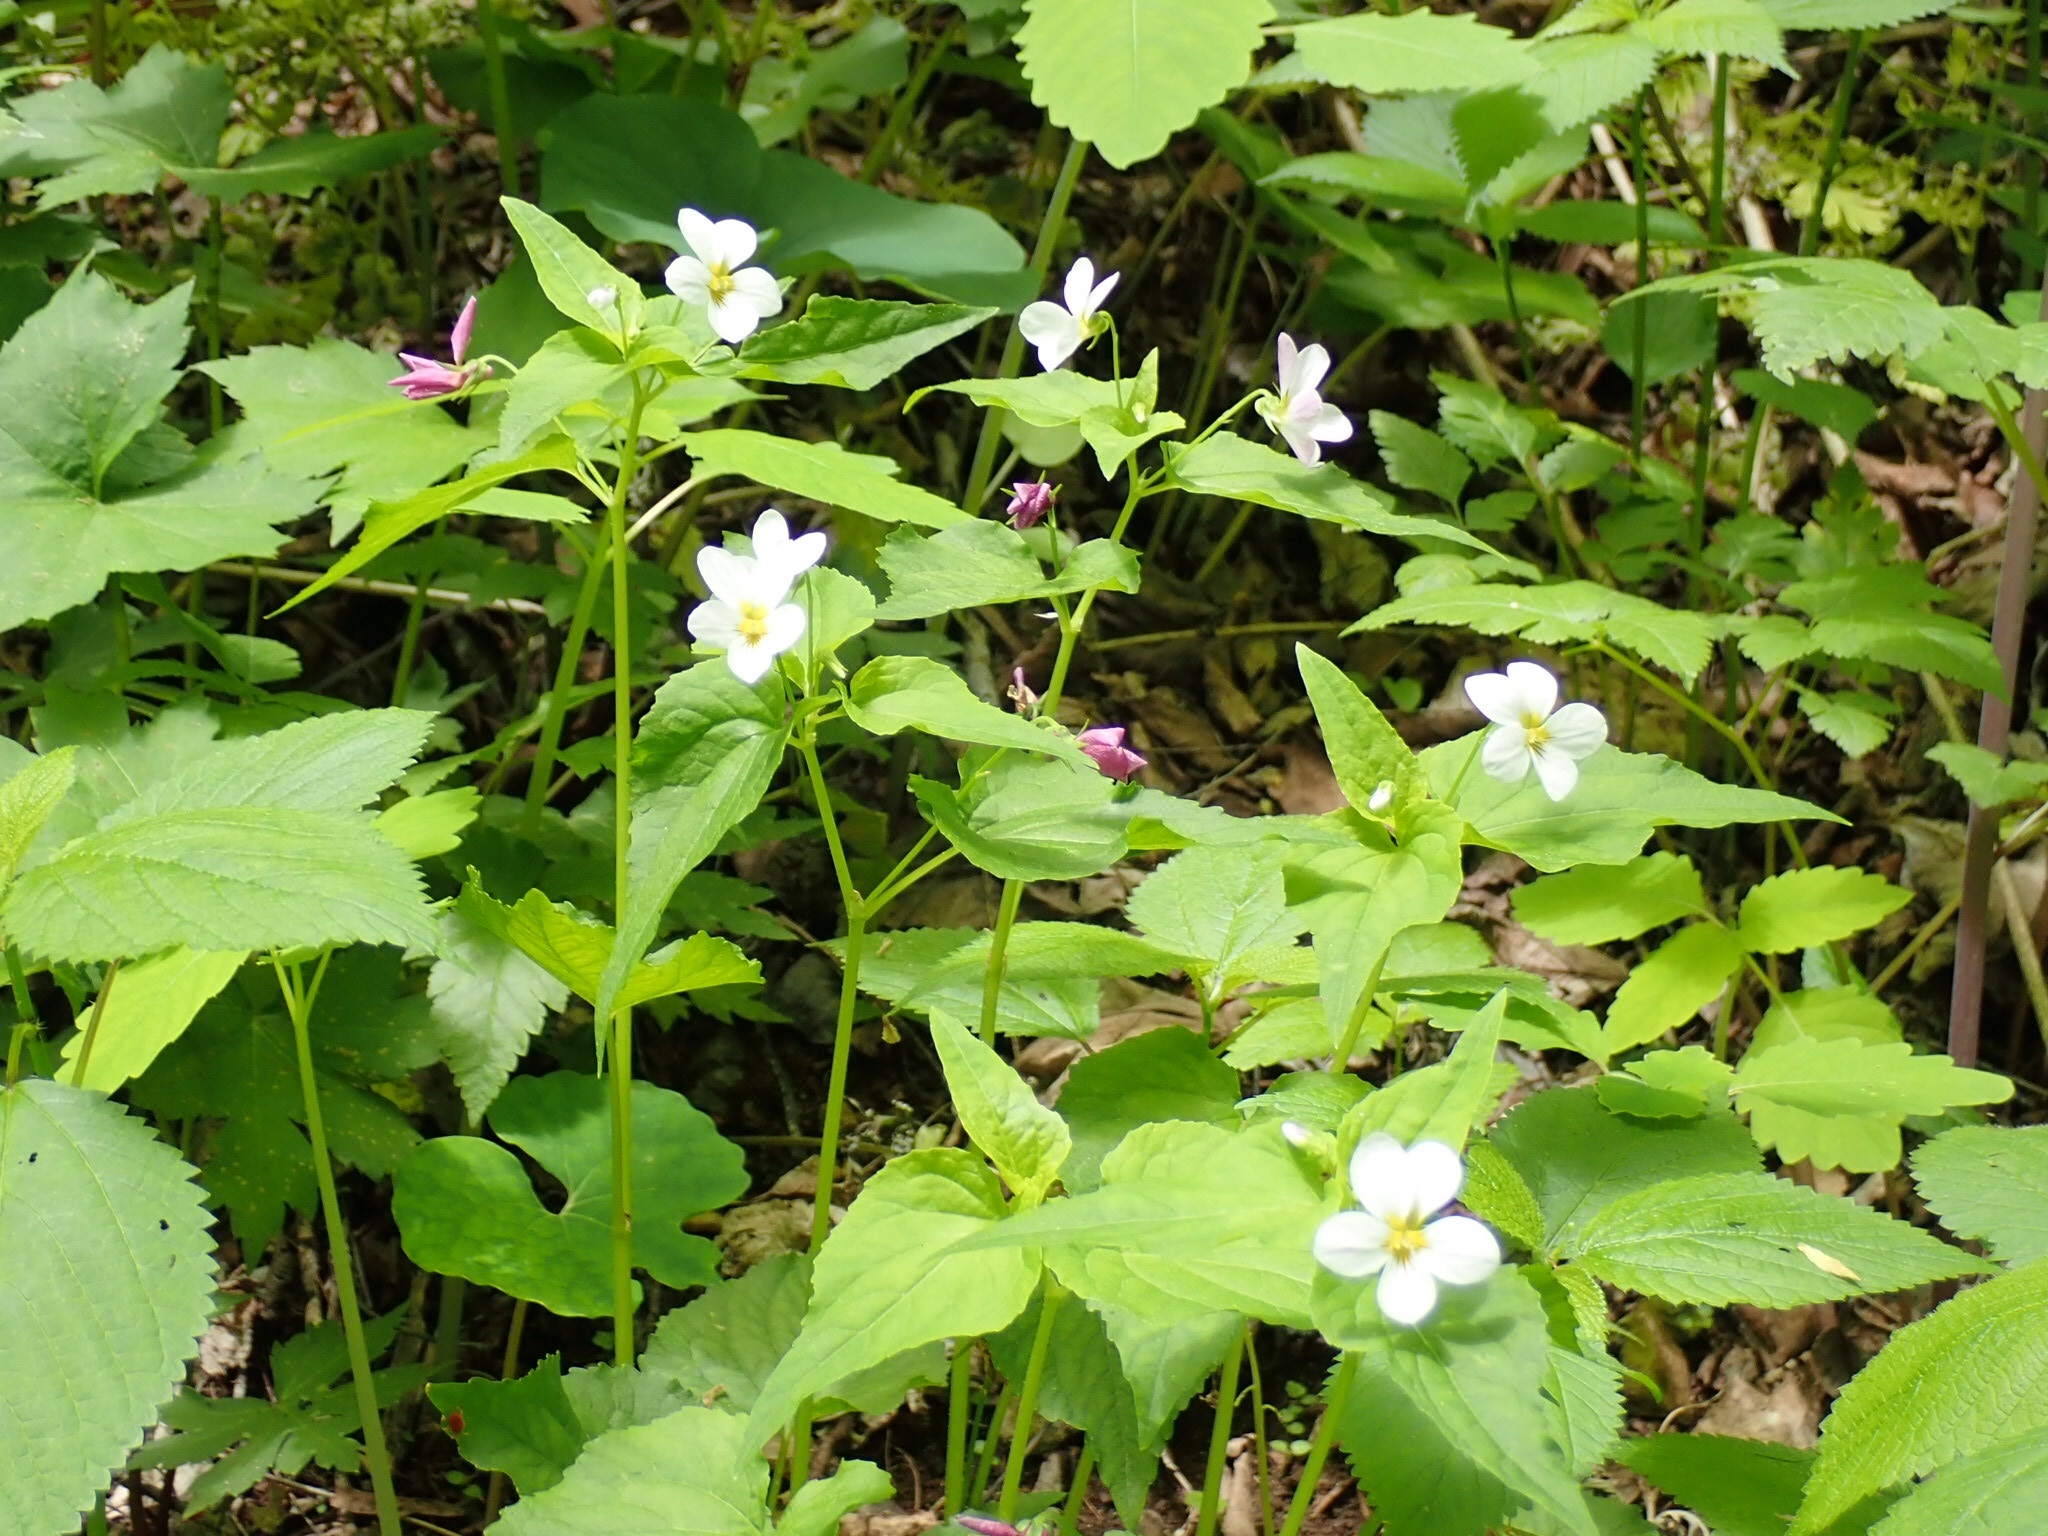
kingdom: Plantae
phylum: Tracheophyta
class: Magnoliopsida
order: Malpighiales
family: Violaceae
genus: Viola
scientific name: Viola canadensis
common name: Canada violet
